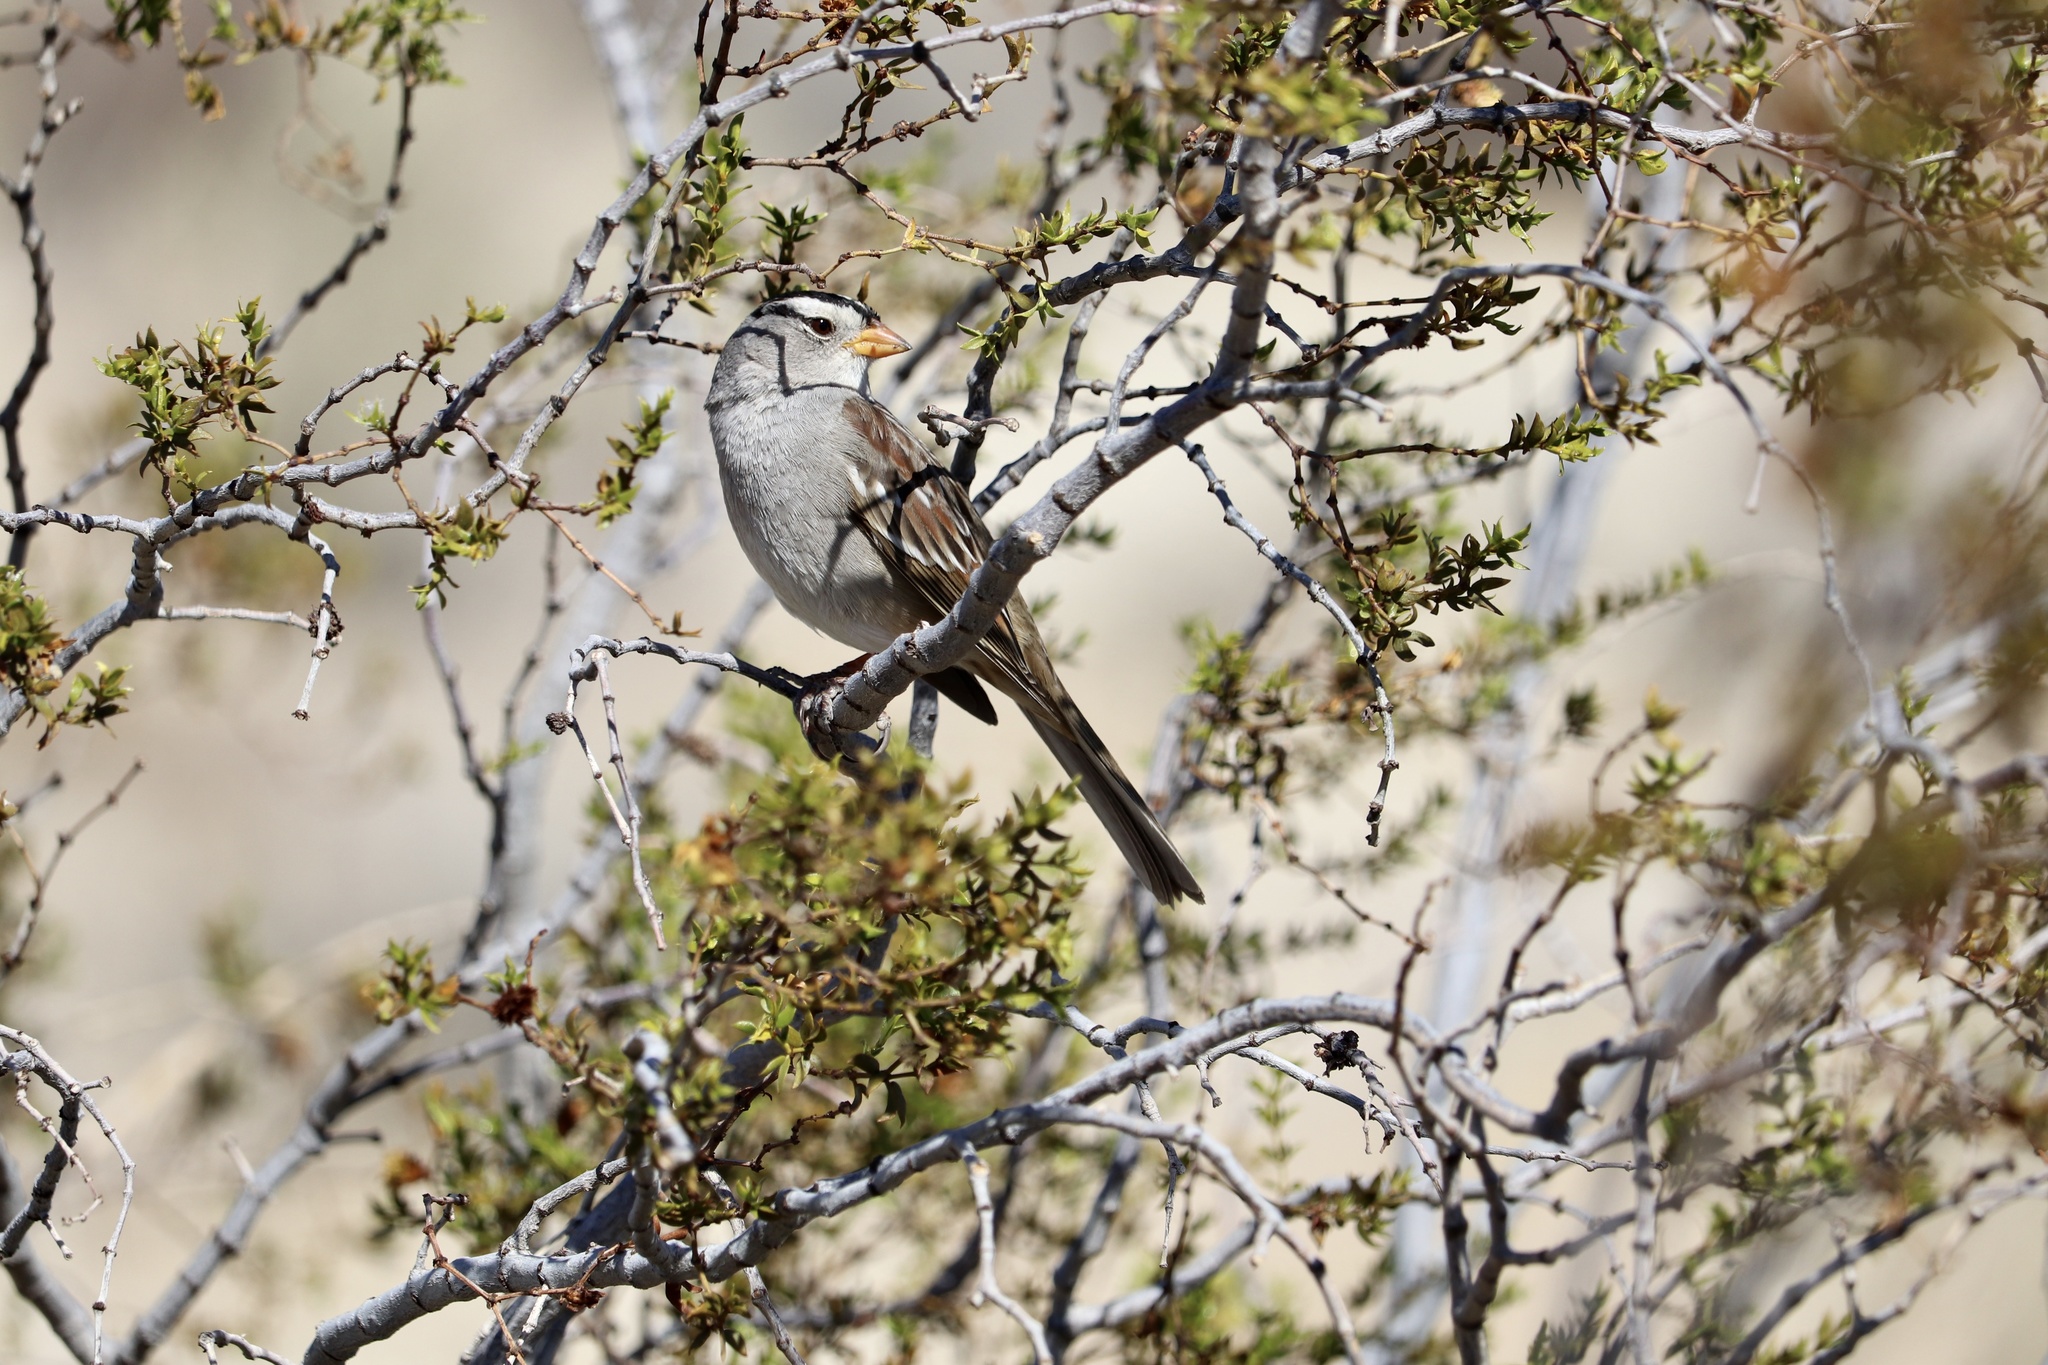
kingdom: Animalia
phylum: Chordata
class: Aves
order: Passeriformes
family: Passerellidae
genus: Zonotrichia
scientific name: Zonotrichia leucophrys
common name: White-crowned sparrow
